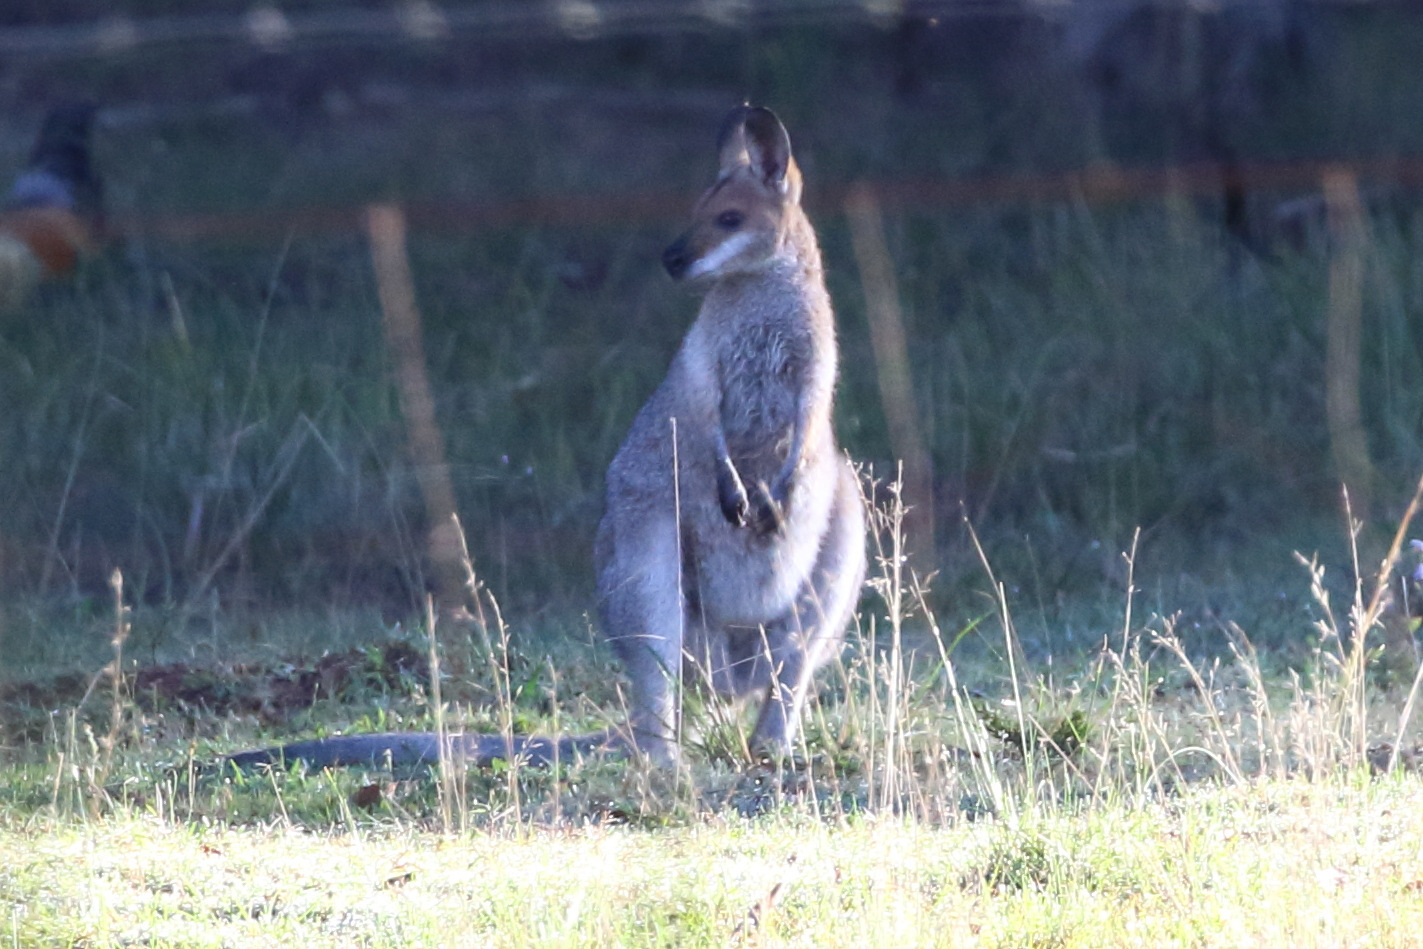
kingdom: Animalia
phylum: Chordata
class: Mammalia
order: Diprotodontia
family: Macropodidae
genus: Notamacropus
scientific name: Notamacropus rufogriseus
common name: Red-necked wallaby
